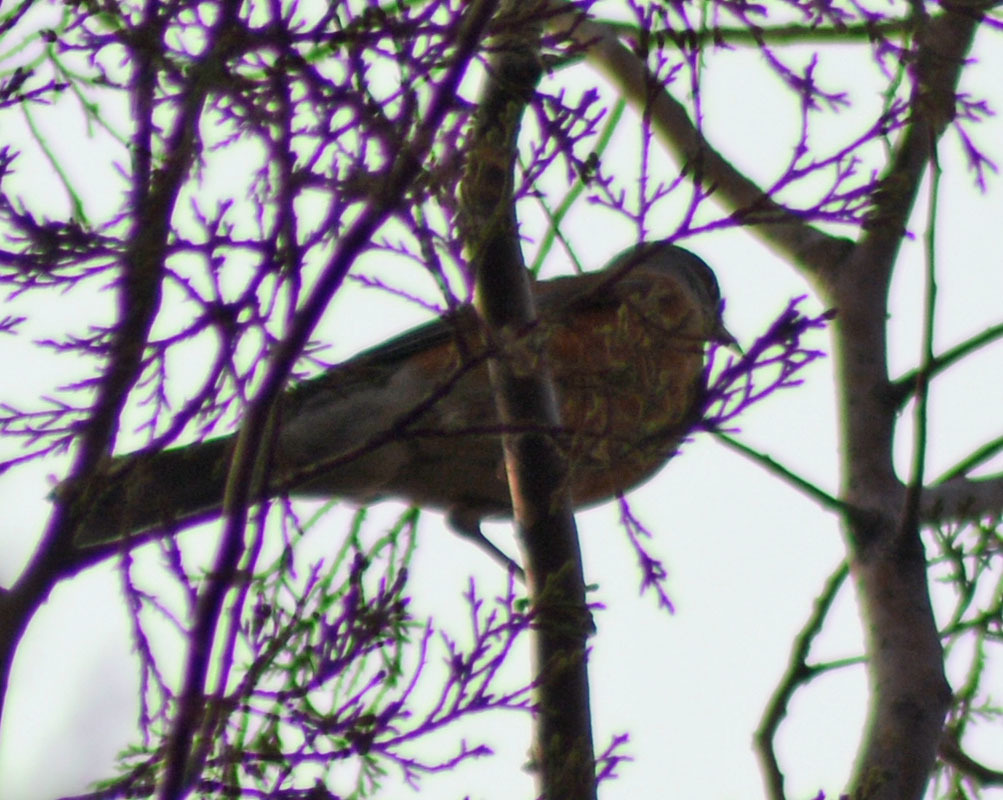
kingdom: Animalia
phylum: Chordata
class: Aves
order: Passeriformes
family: Turdidae
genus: Turdus
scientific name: Turdus rufopalliatus
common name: Rufous-backed robin
